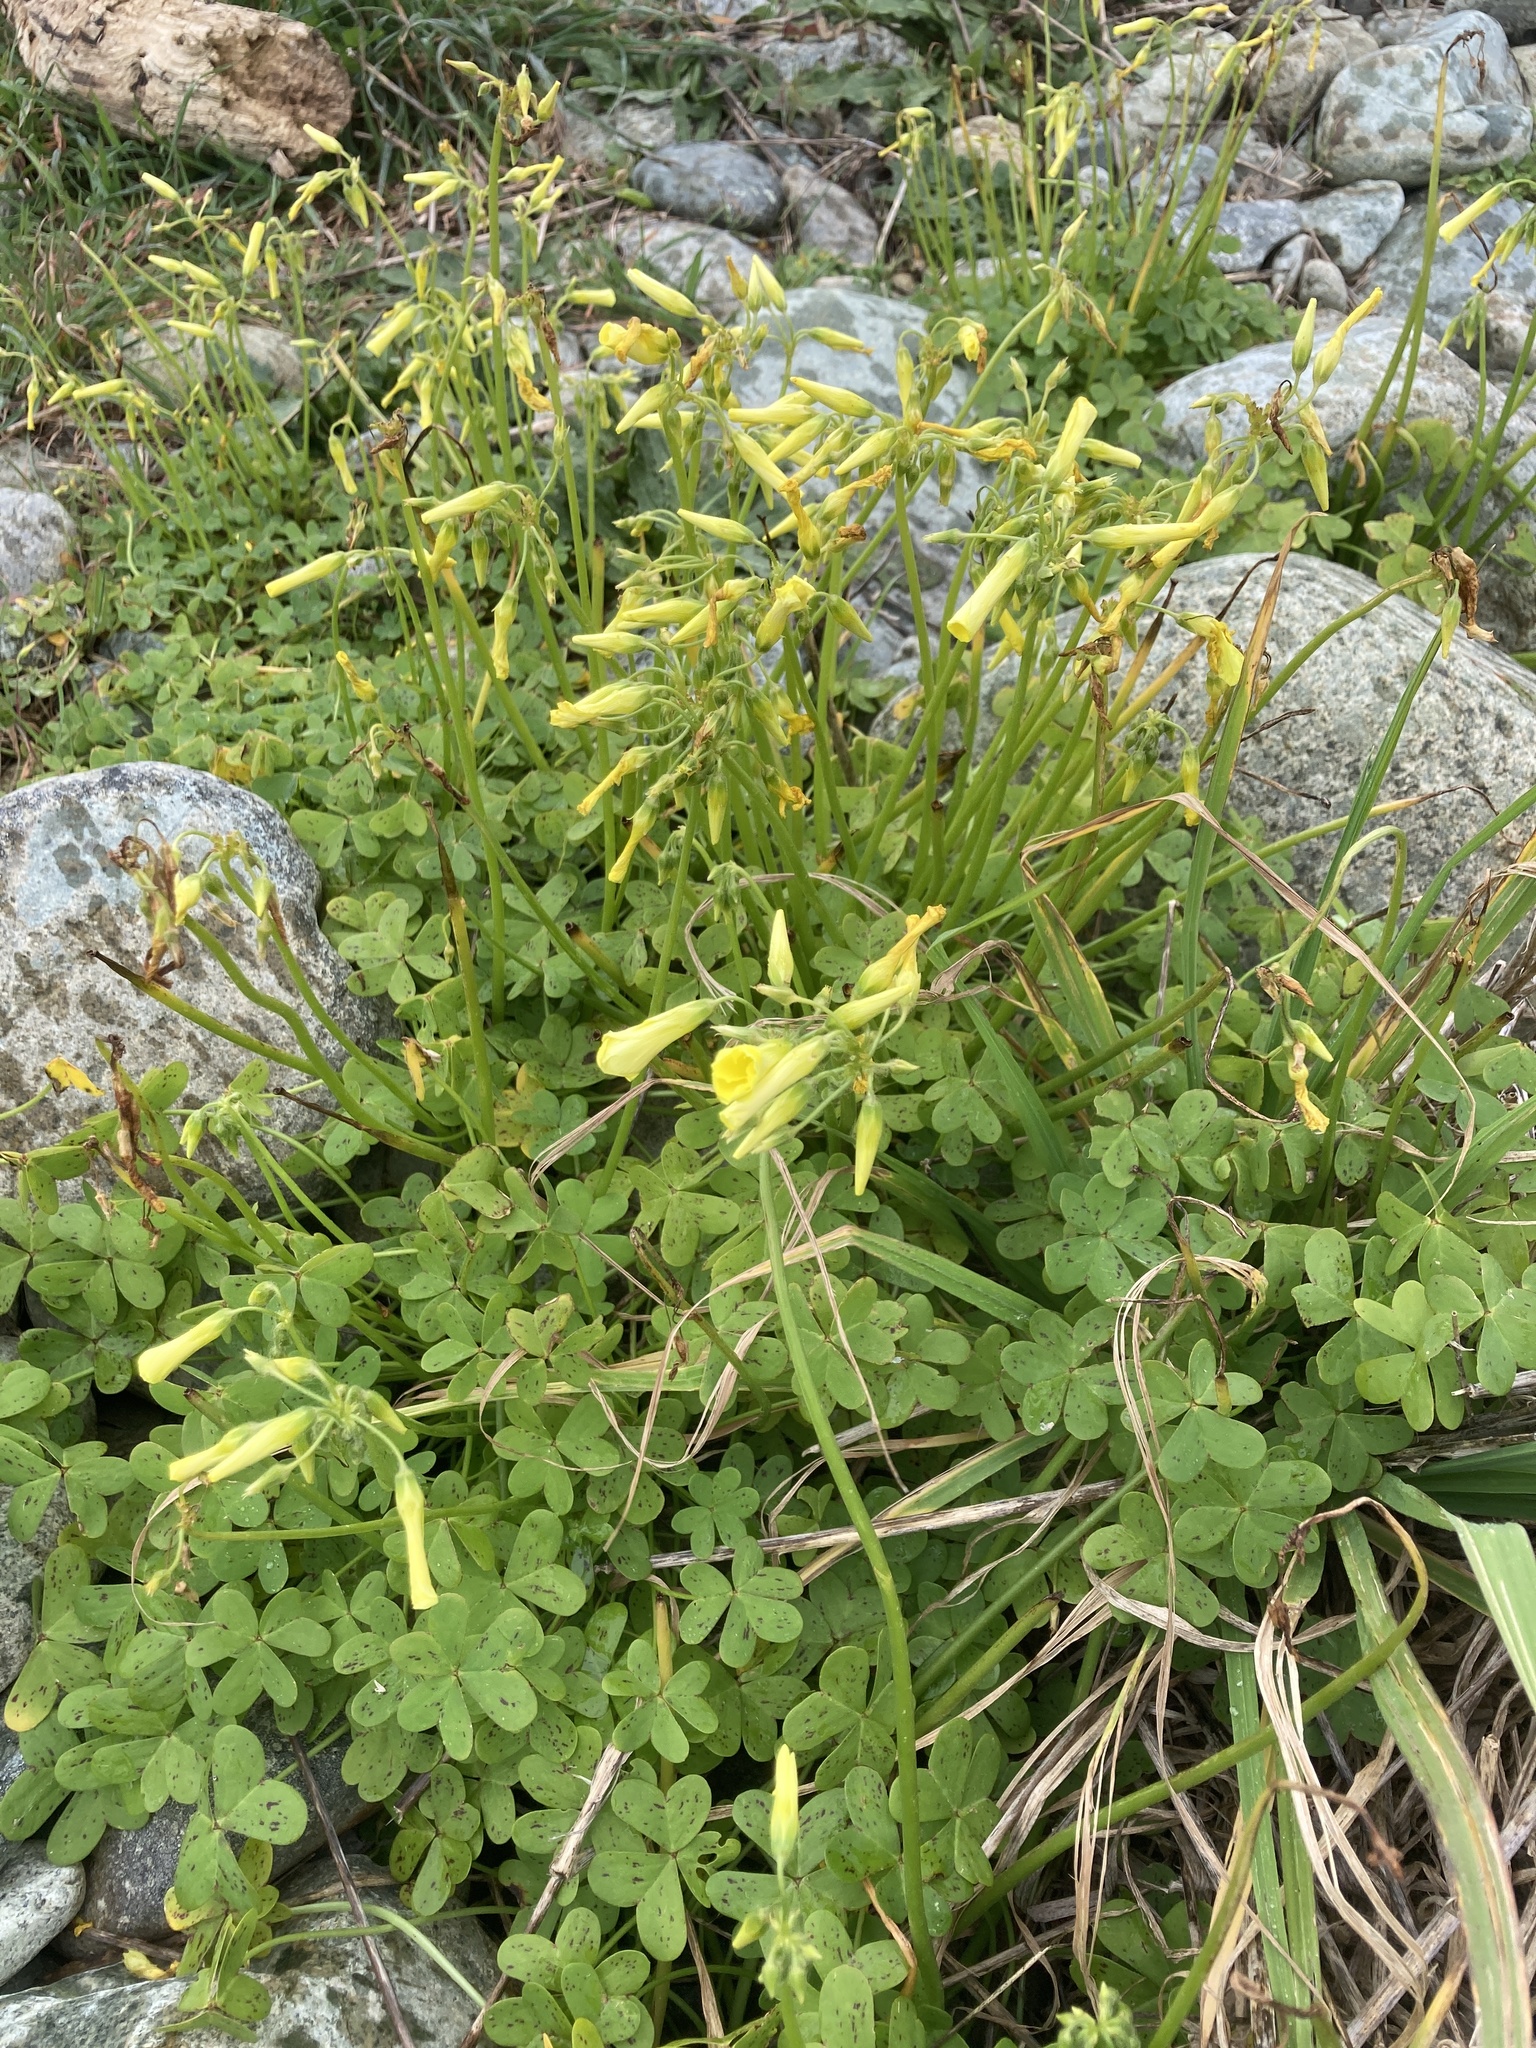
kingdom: Plantae
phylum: Tracheophyta
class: Magnoliopsida
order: Oxalidales
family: Oxalidaceae
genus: Oxalis
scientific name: Oxalis pes-caprae
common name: Bermuda-buttercup
